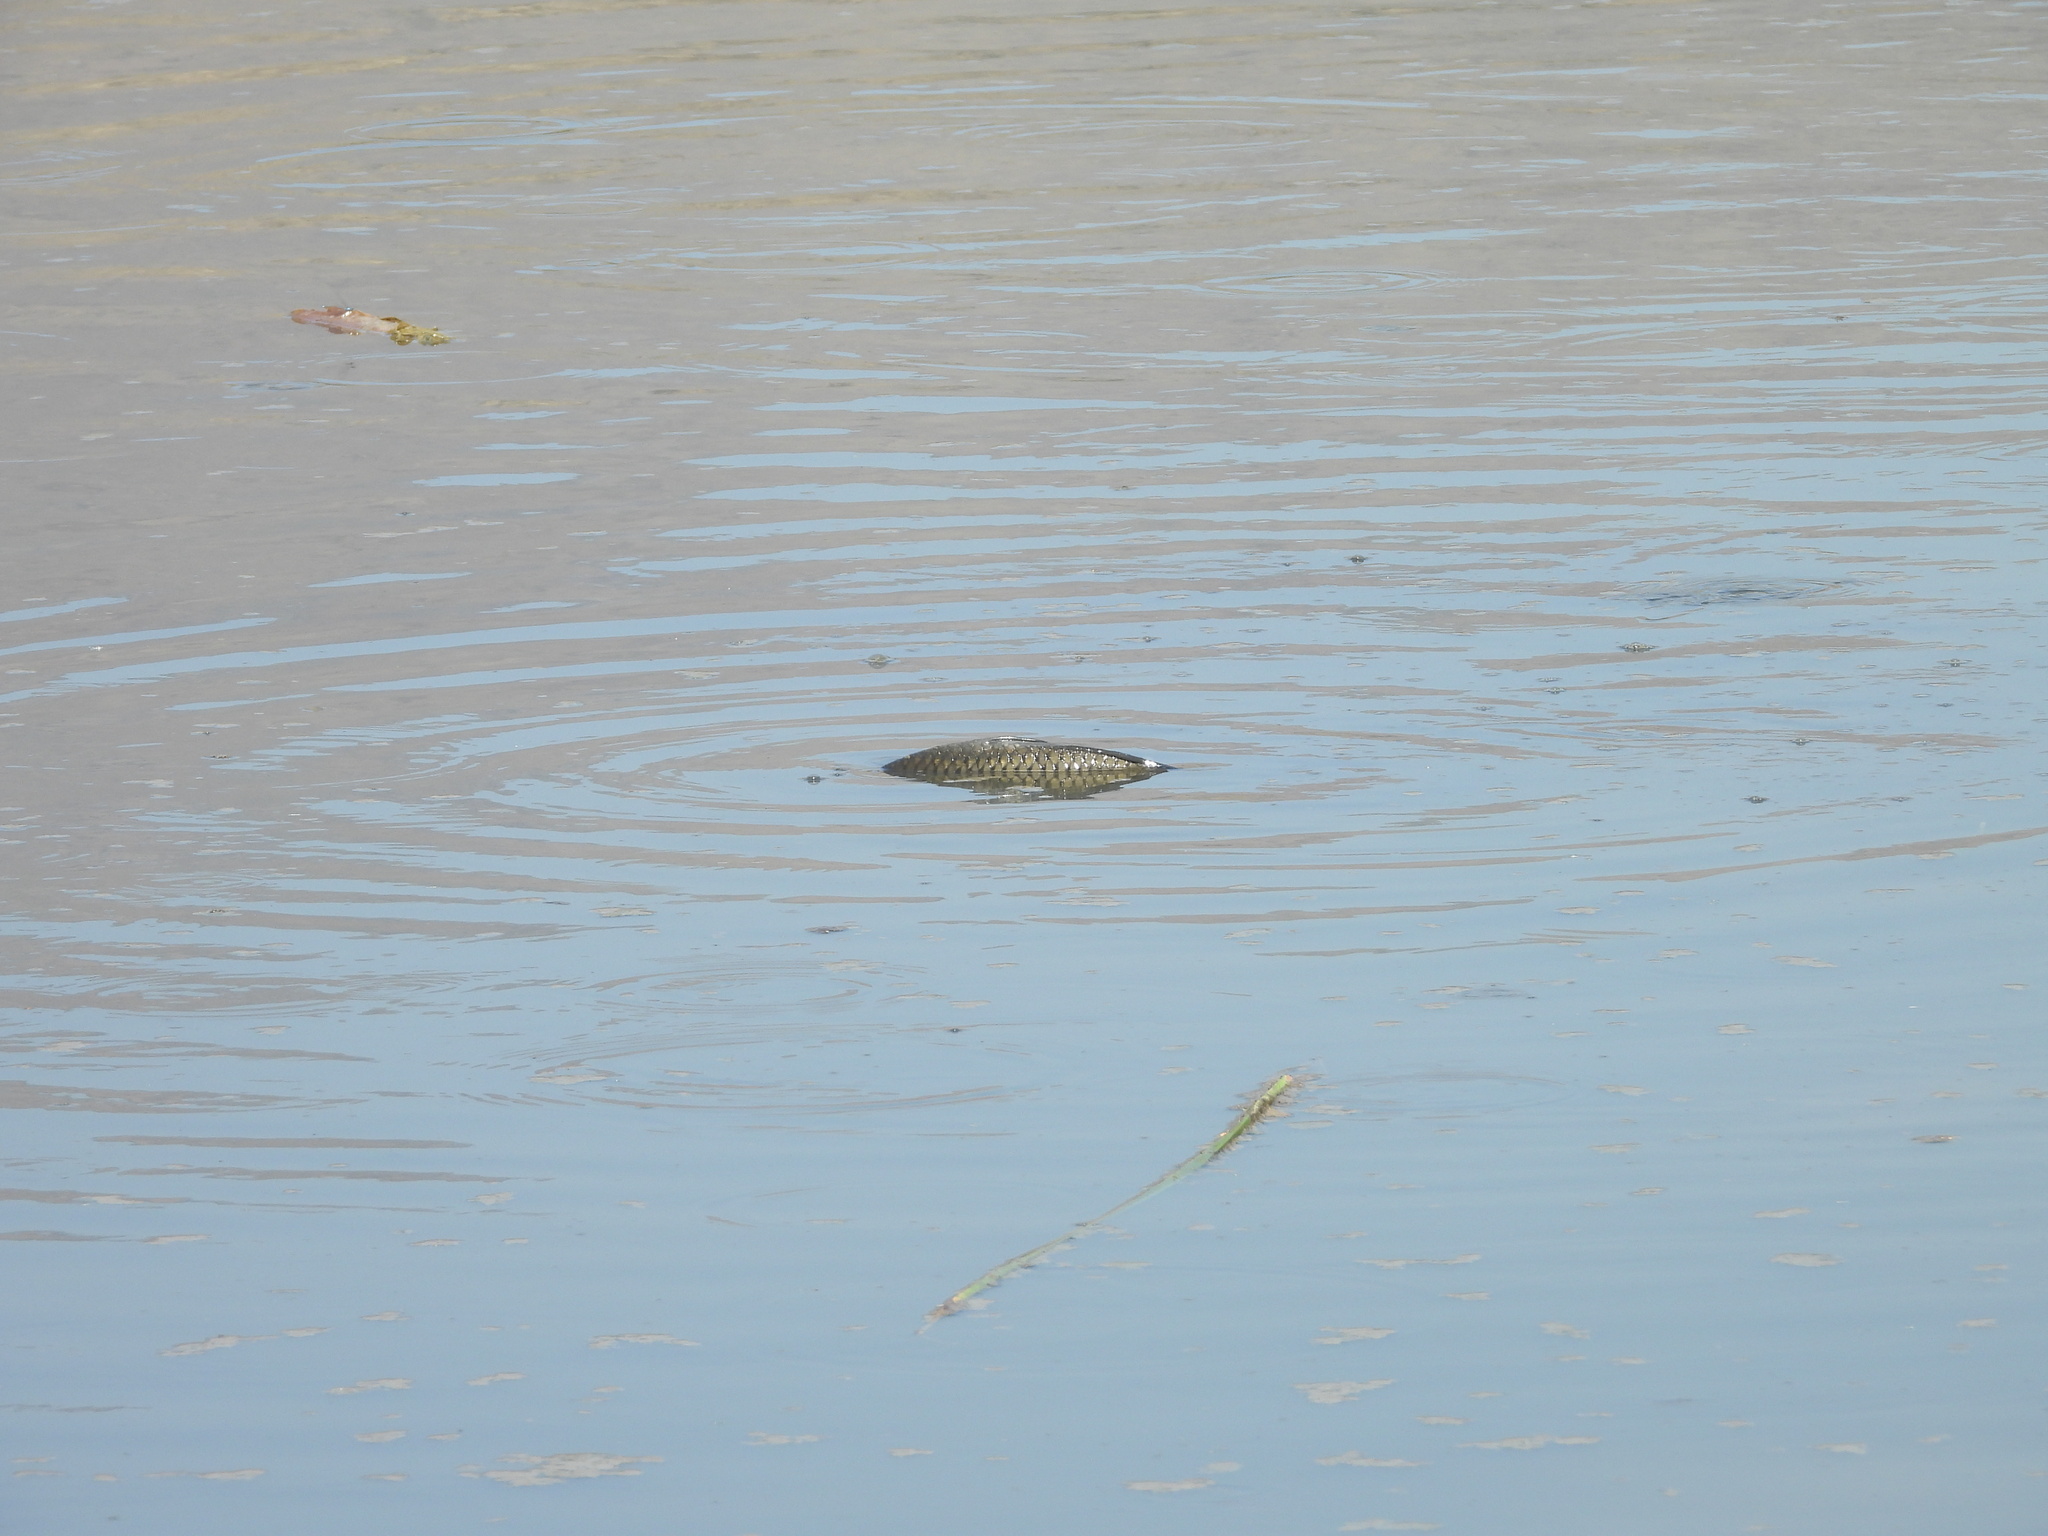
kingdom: Animalia
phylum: Chordata
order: Cypriniformes
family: Cyprinidae
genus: Cyprinus
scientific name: Cyprinus carpio
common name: Common carp
